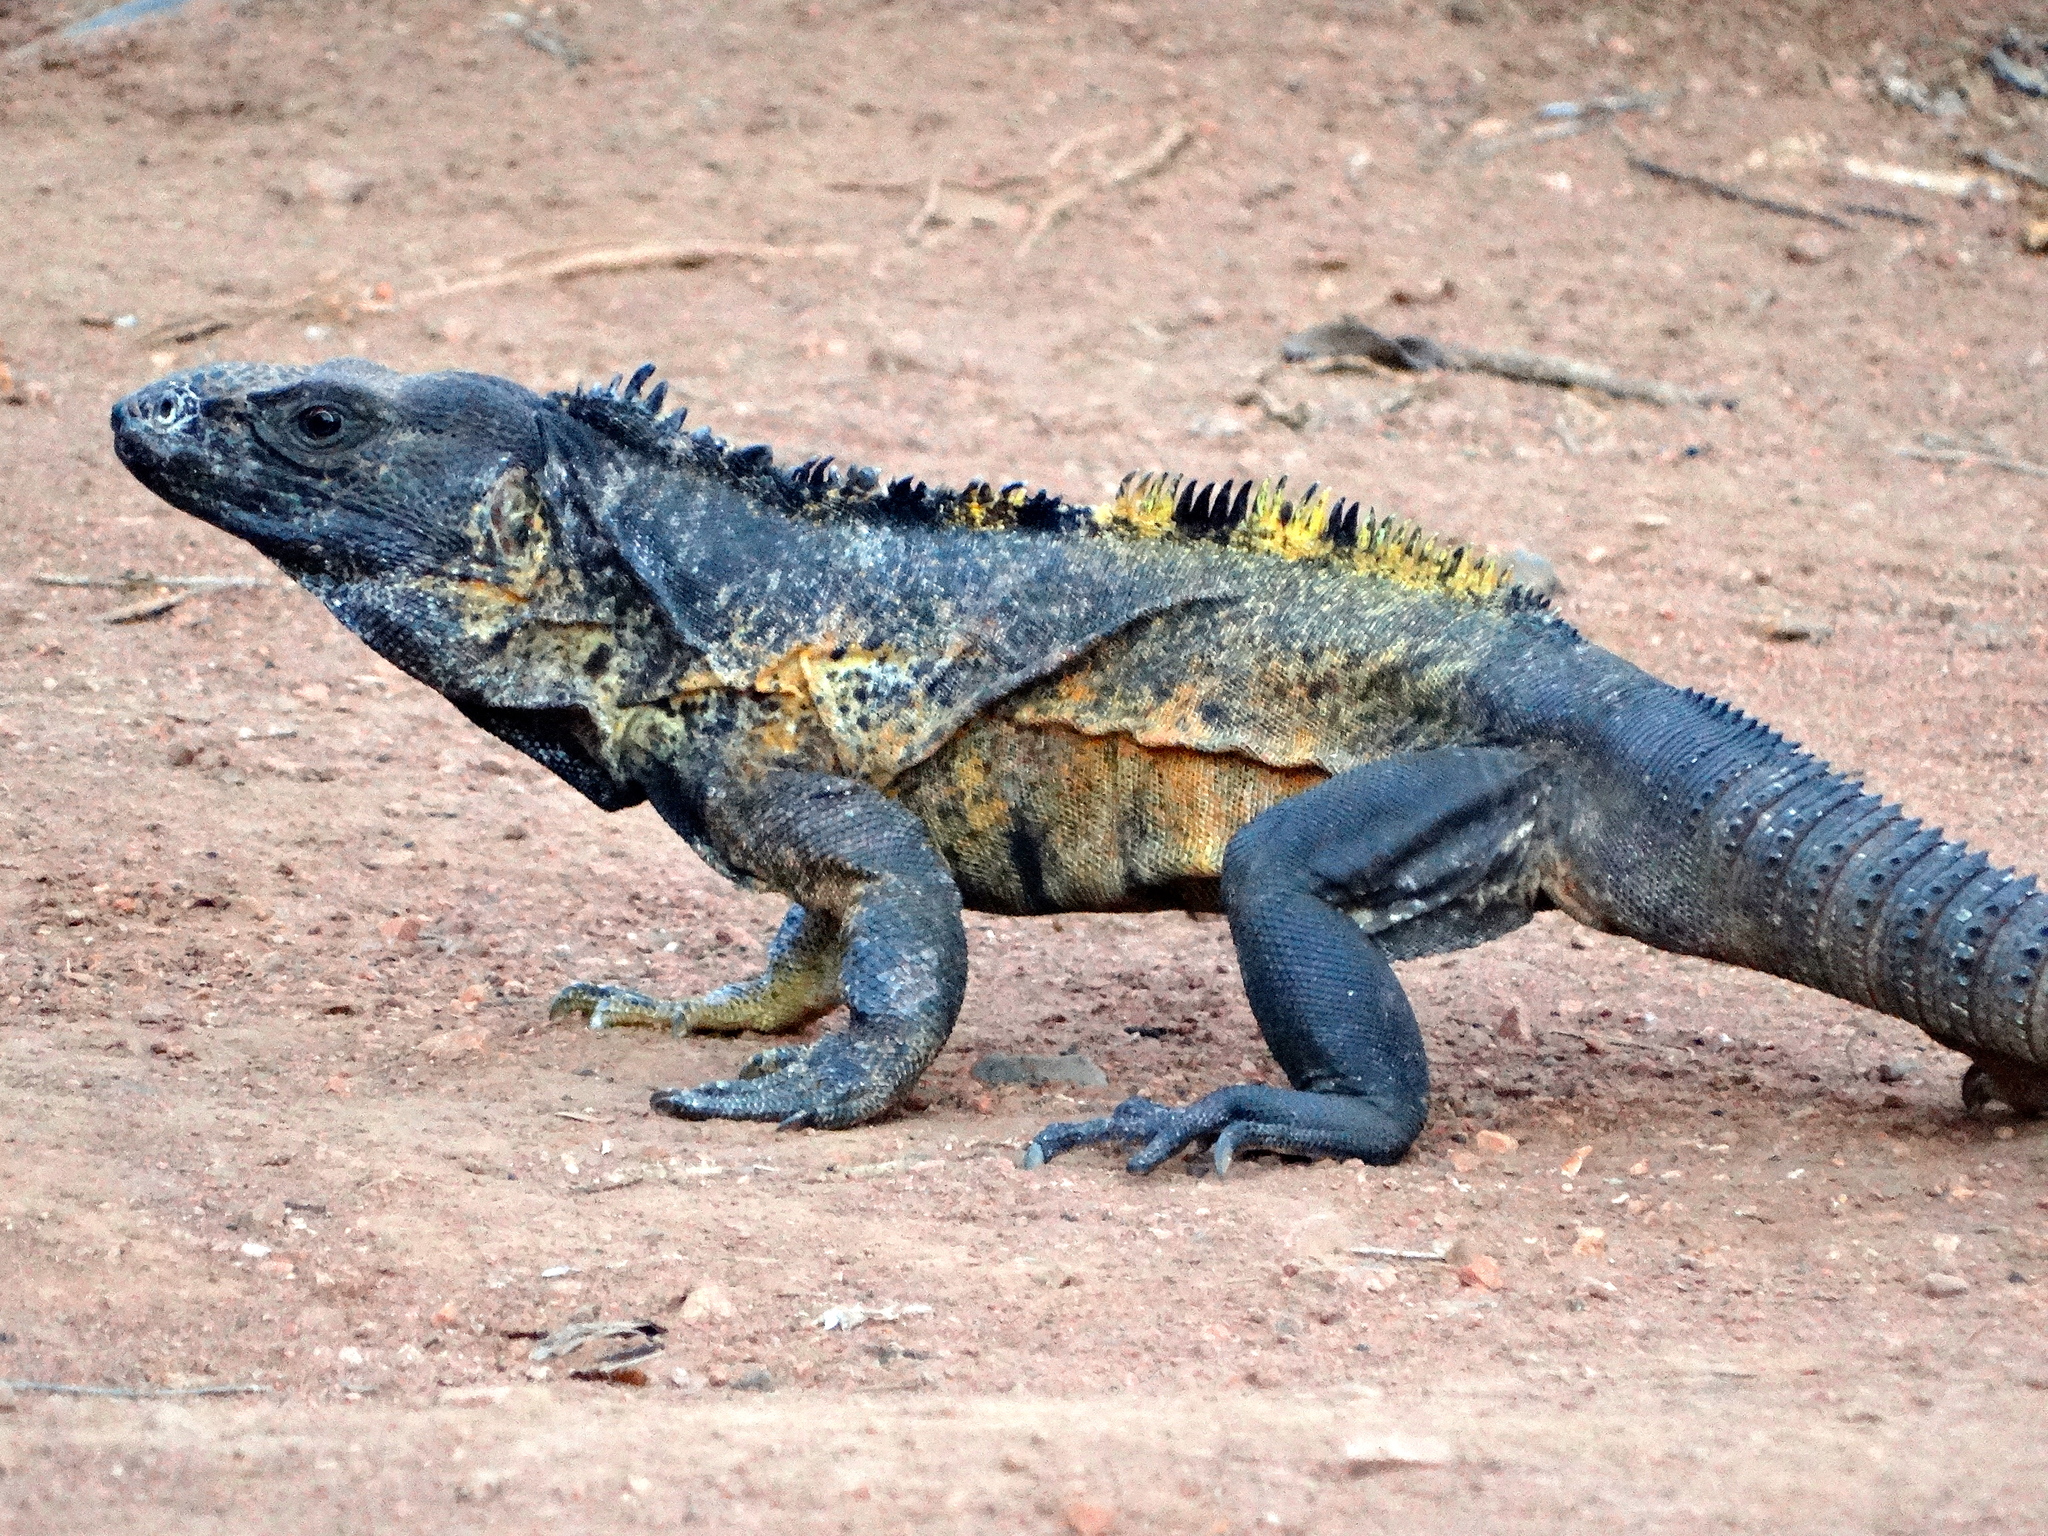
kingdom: Animalia
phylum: Chordata
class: Squamata
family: Iguanidae
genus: Ctenosaura
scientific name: Ctenosaura pectinata
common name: Guerreran spiny-tailed iguana
